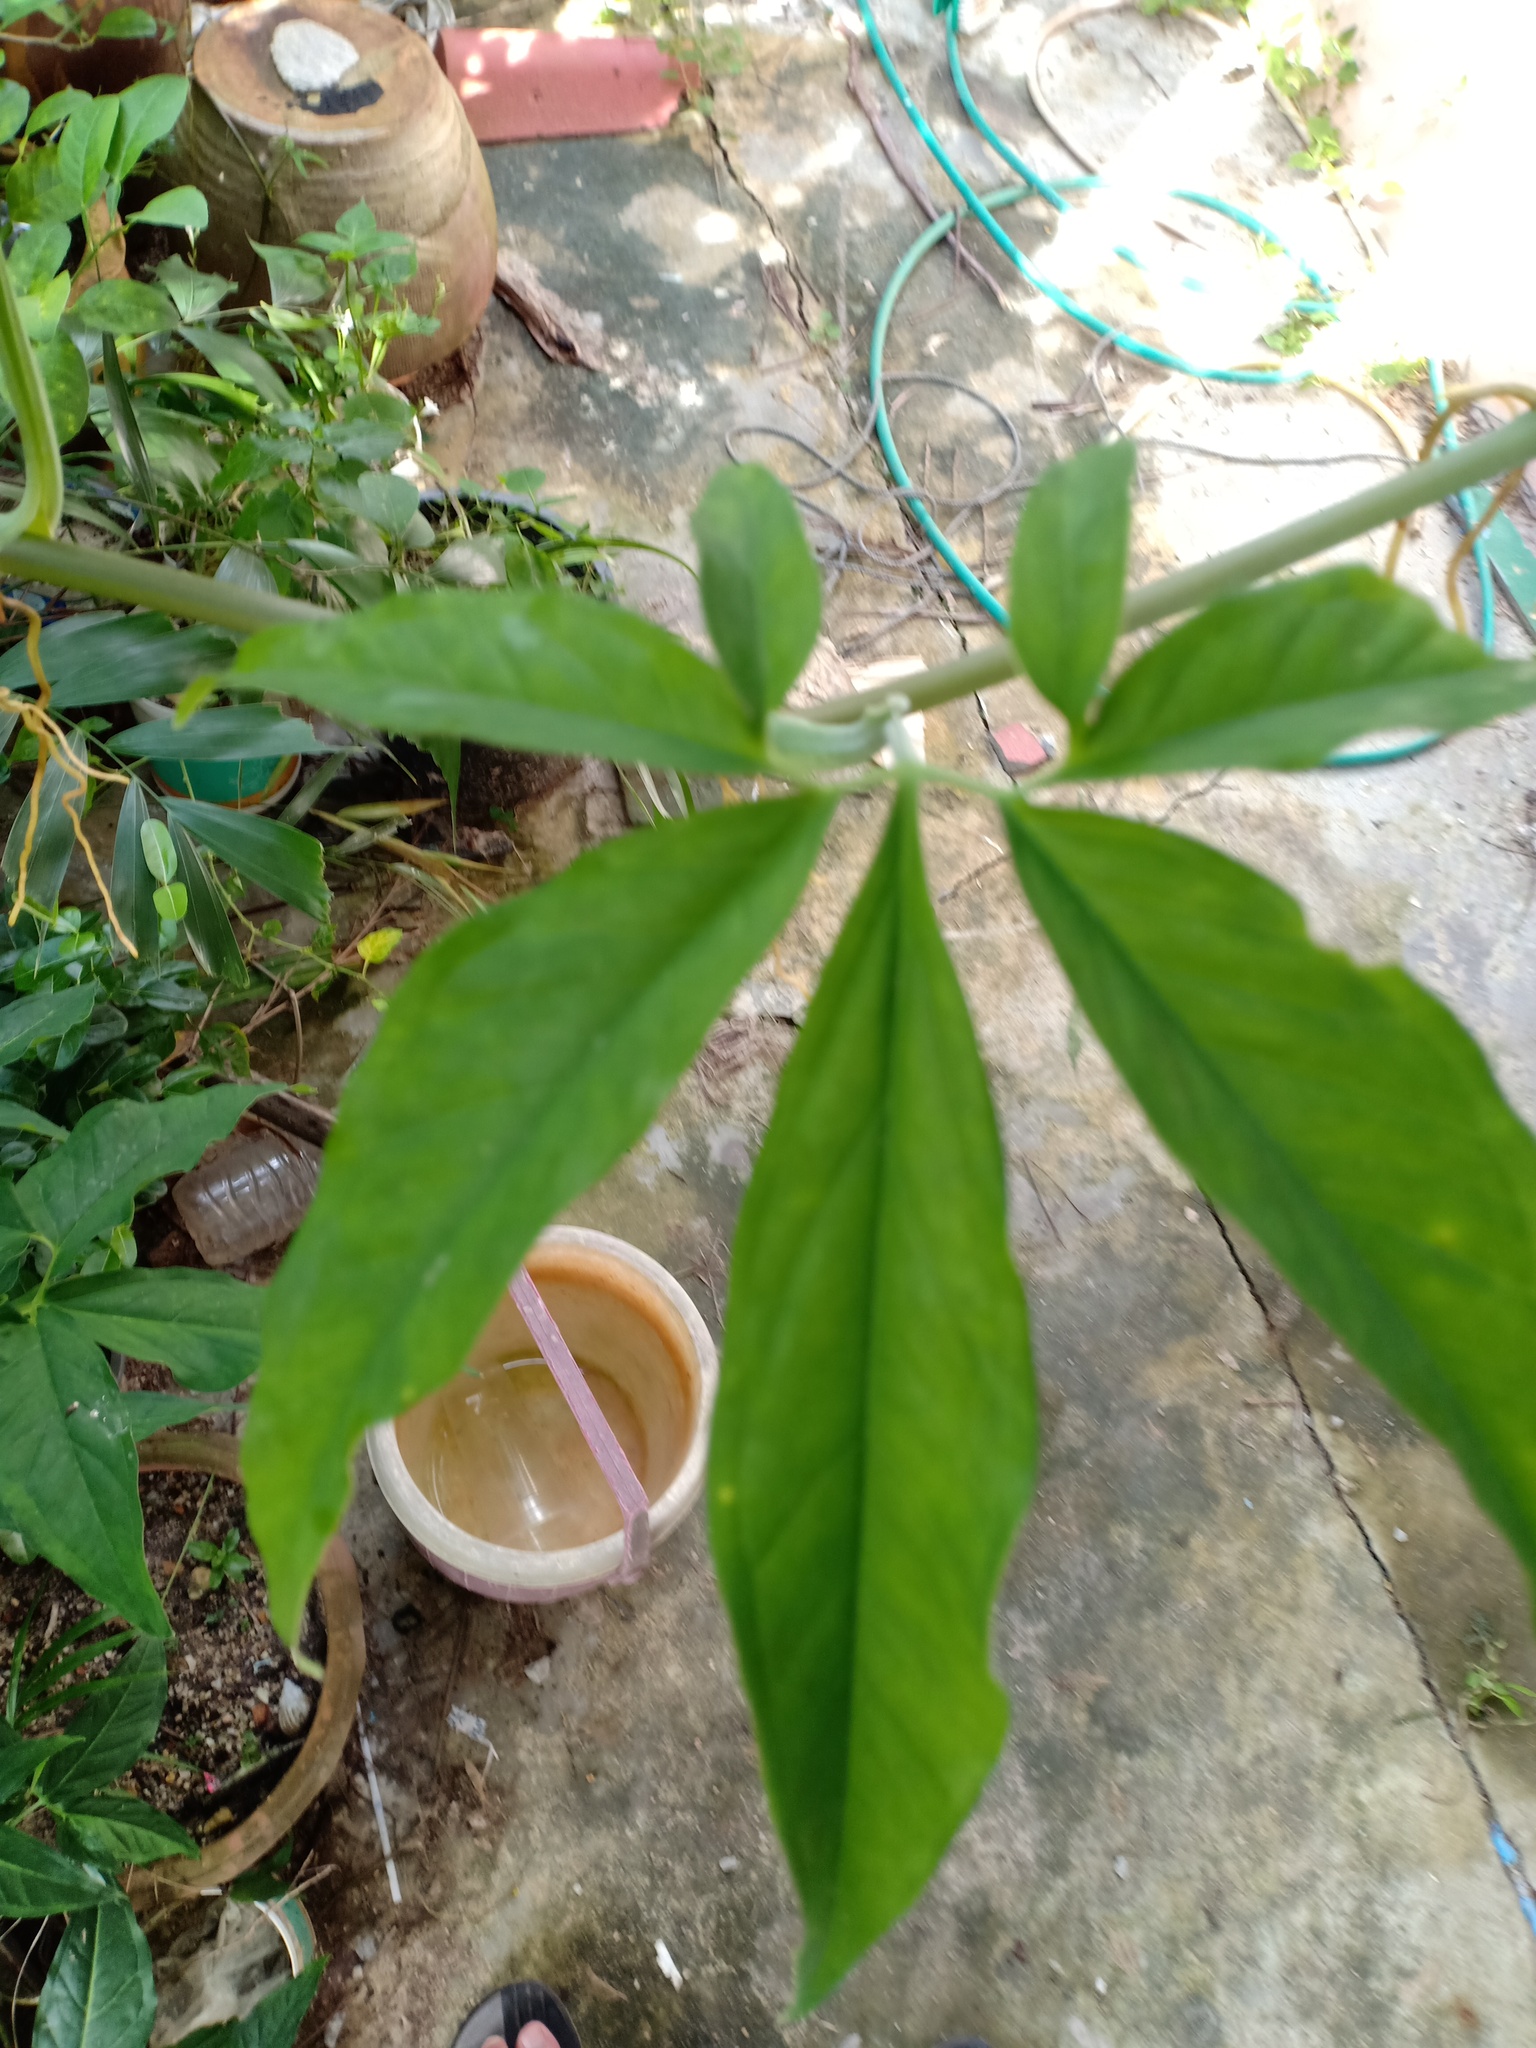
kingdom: Plantae
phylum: Tracheophyta
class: Liliopsida
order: Alismatales
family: Araceae
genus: Syngonium
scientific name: Syngonium angustatum
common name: Fivefingers
